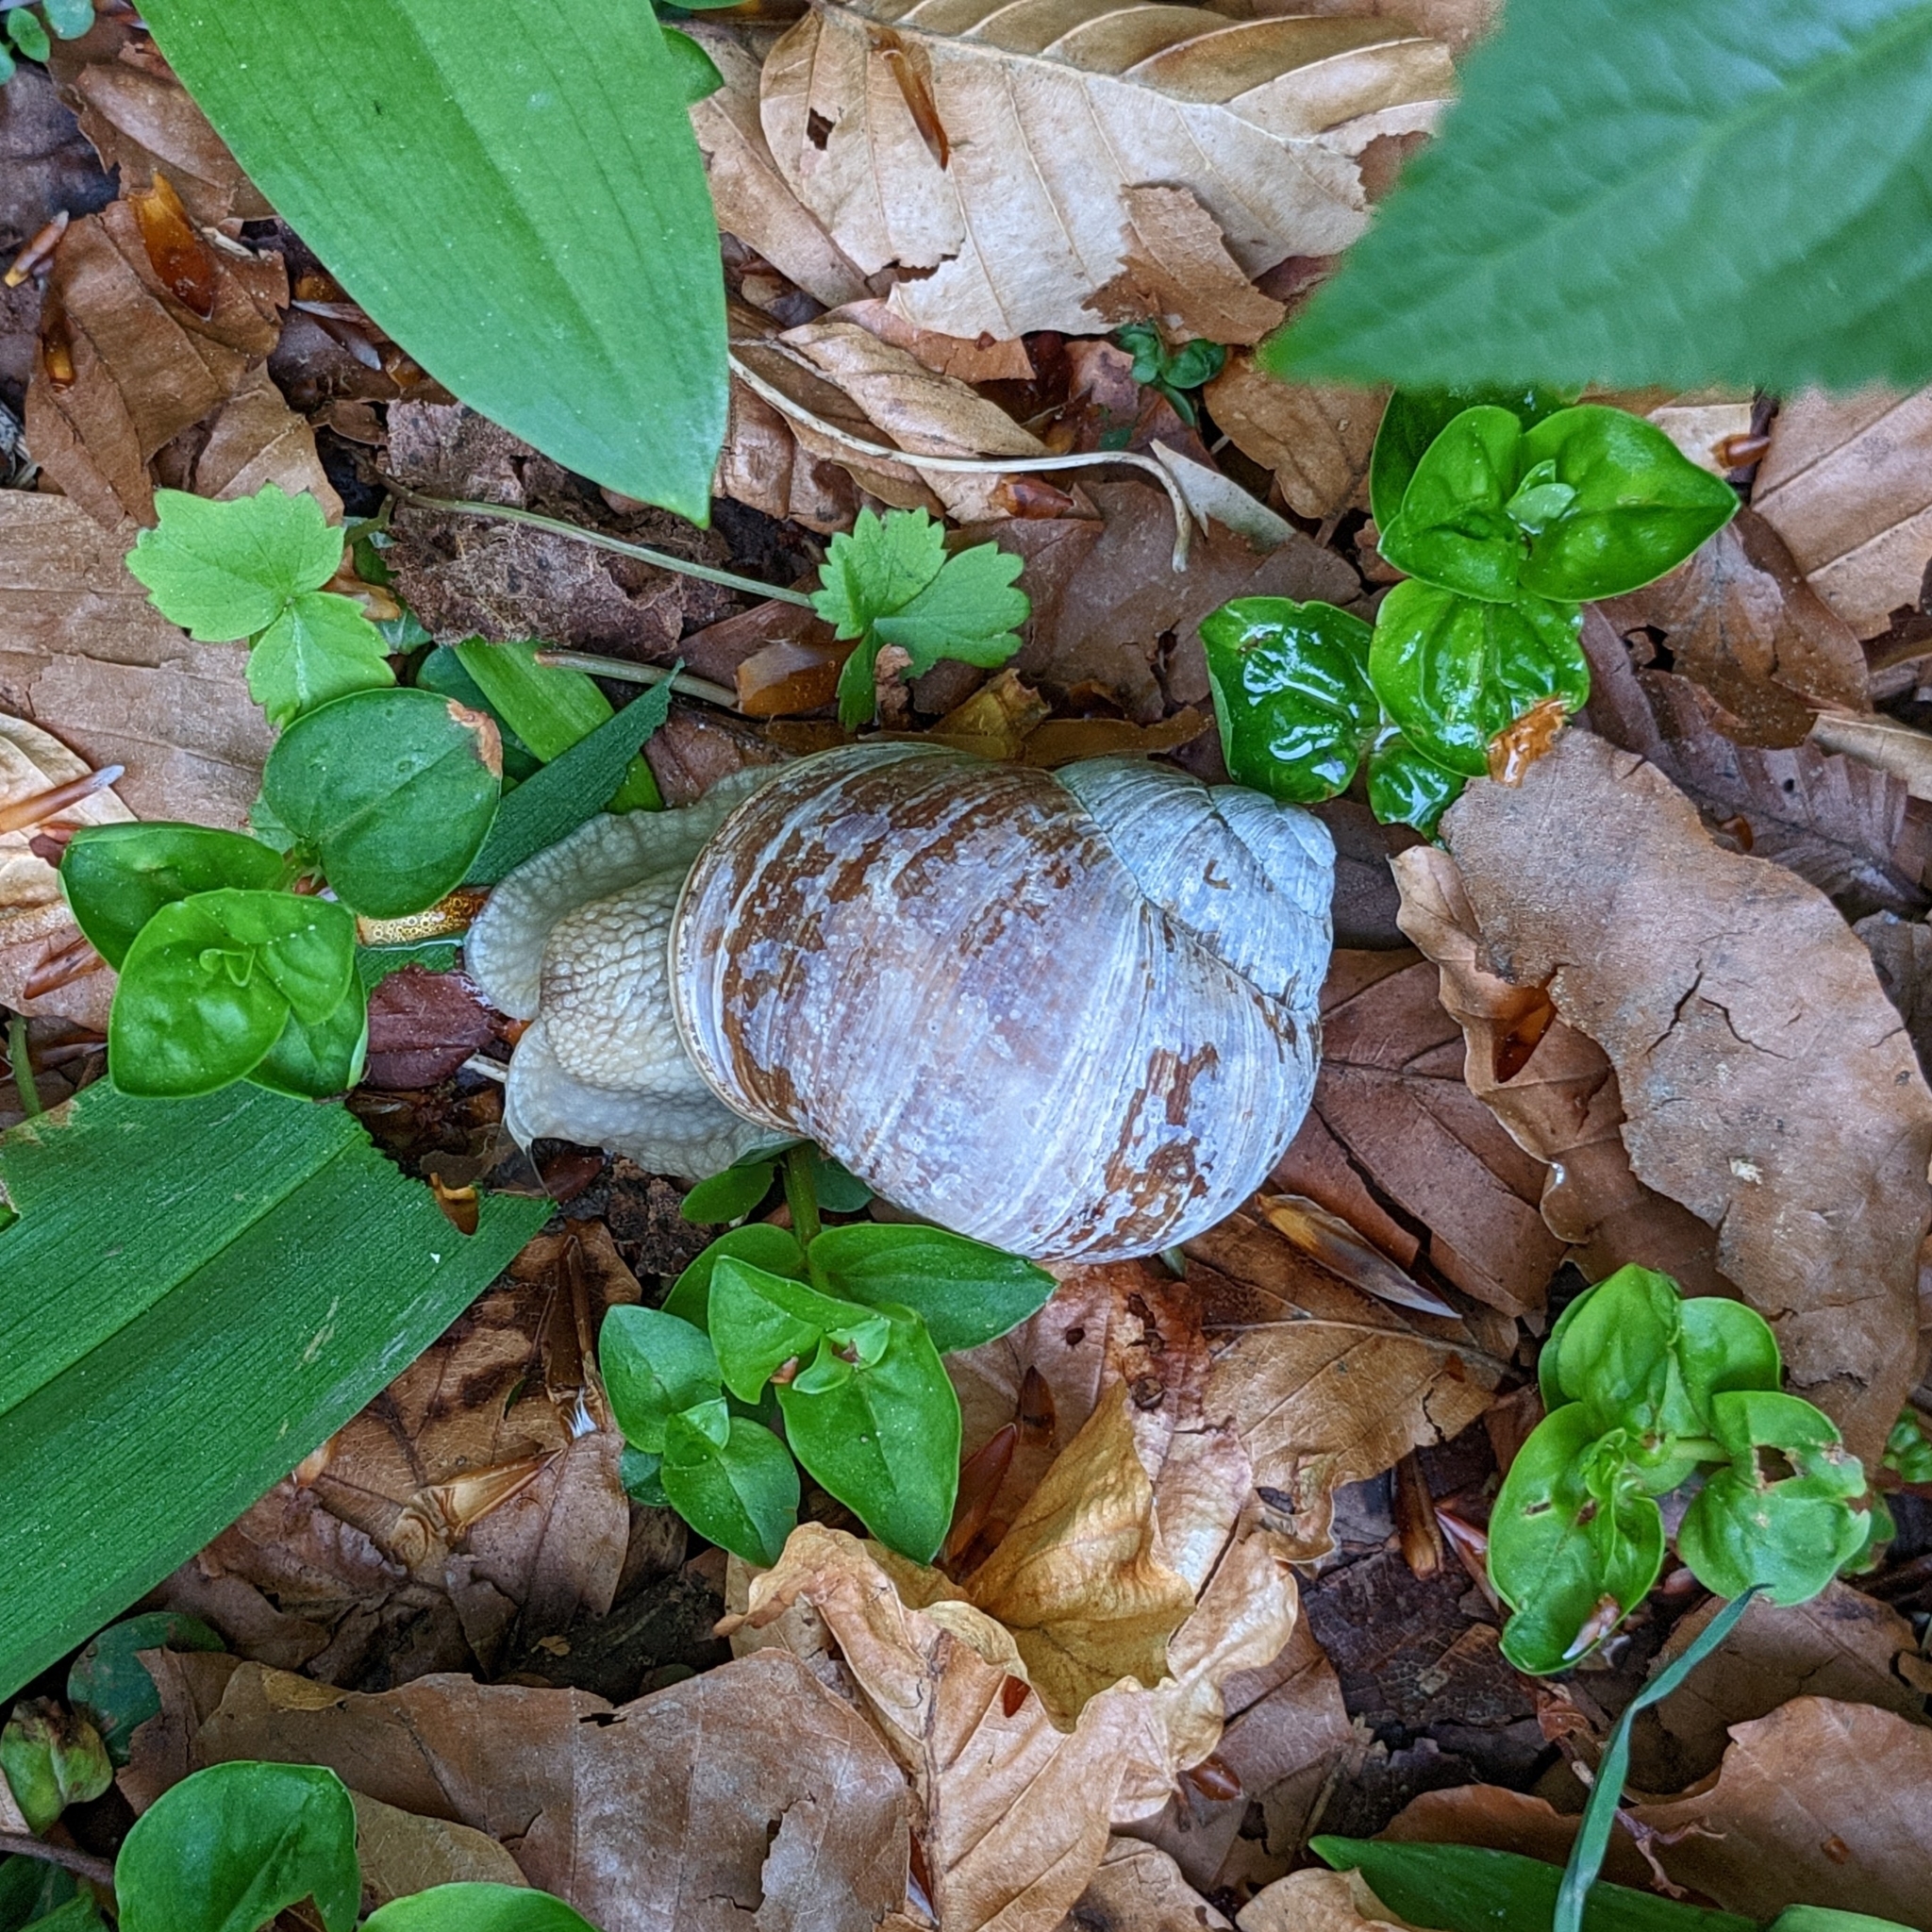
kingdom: Animalia
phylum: Mollusca
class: Gastropoda
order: Stylommatophora
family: Helicidae
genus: Helix
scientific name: Helix pomatia
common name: Roman snail
